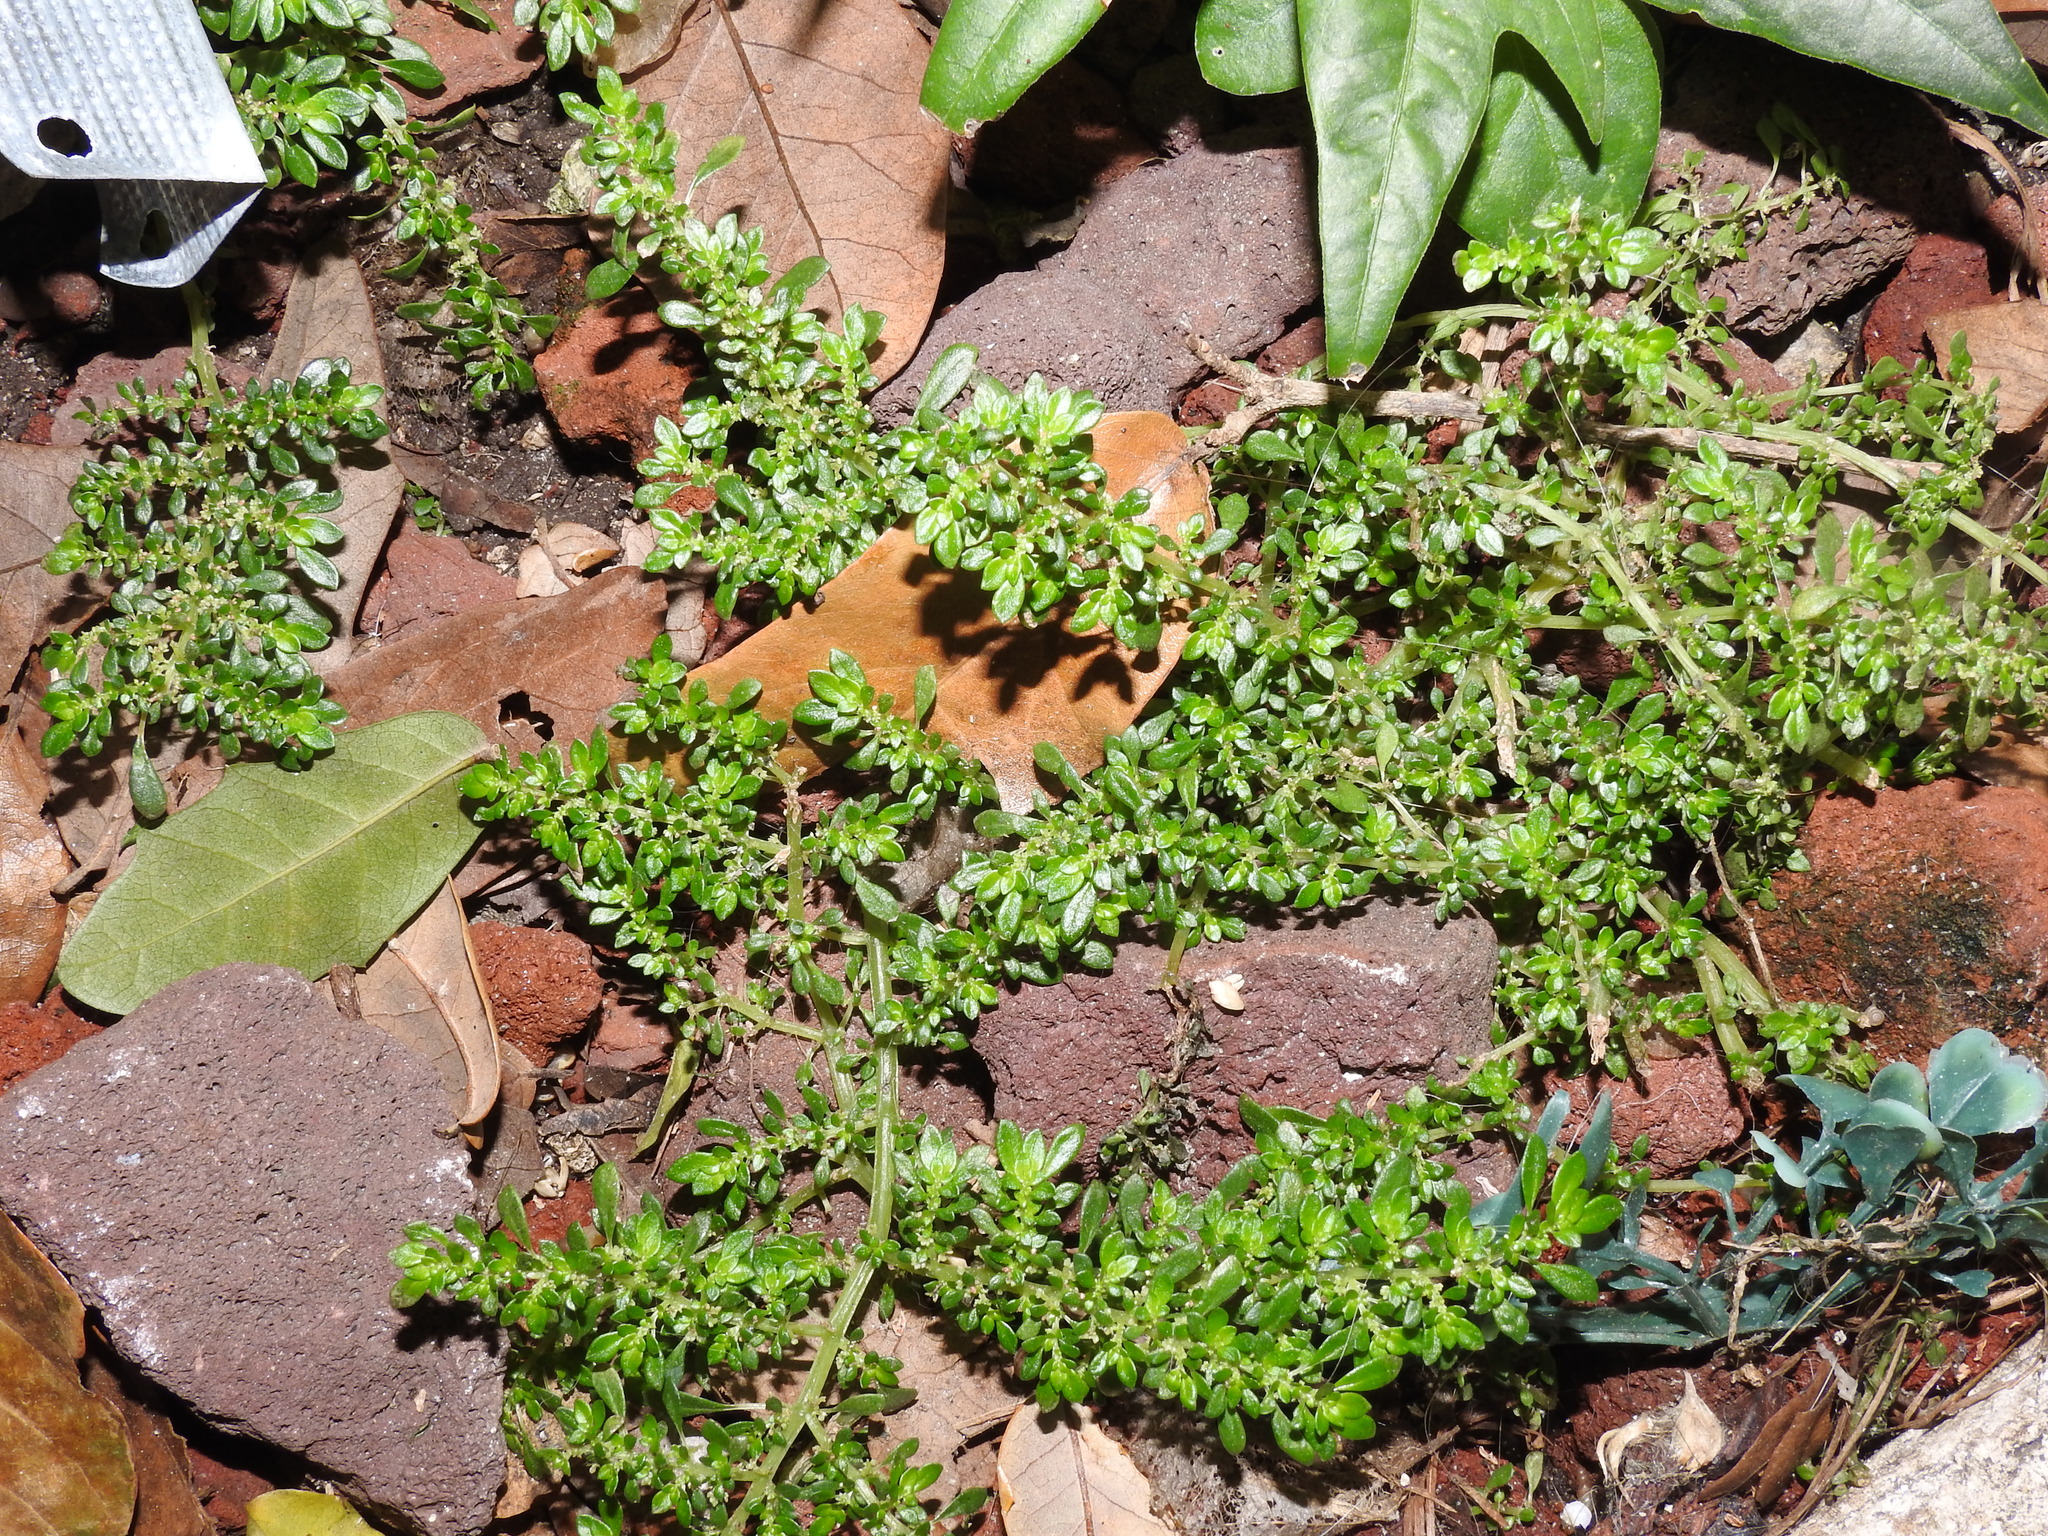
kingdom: Plantae
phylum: Tracheophyta
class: Magnoliopsida
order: Rosales
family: Urticaceae
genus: Pilea
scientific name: Pilea microphylla
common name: Artillery-plant
